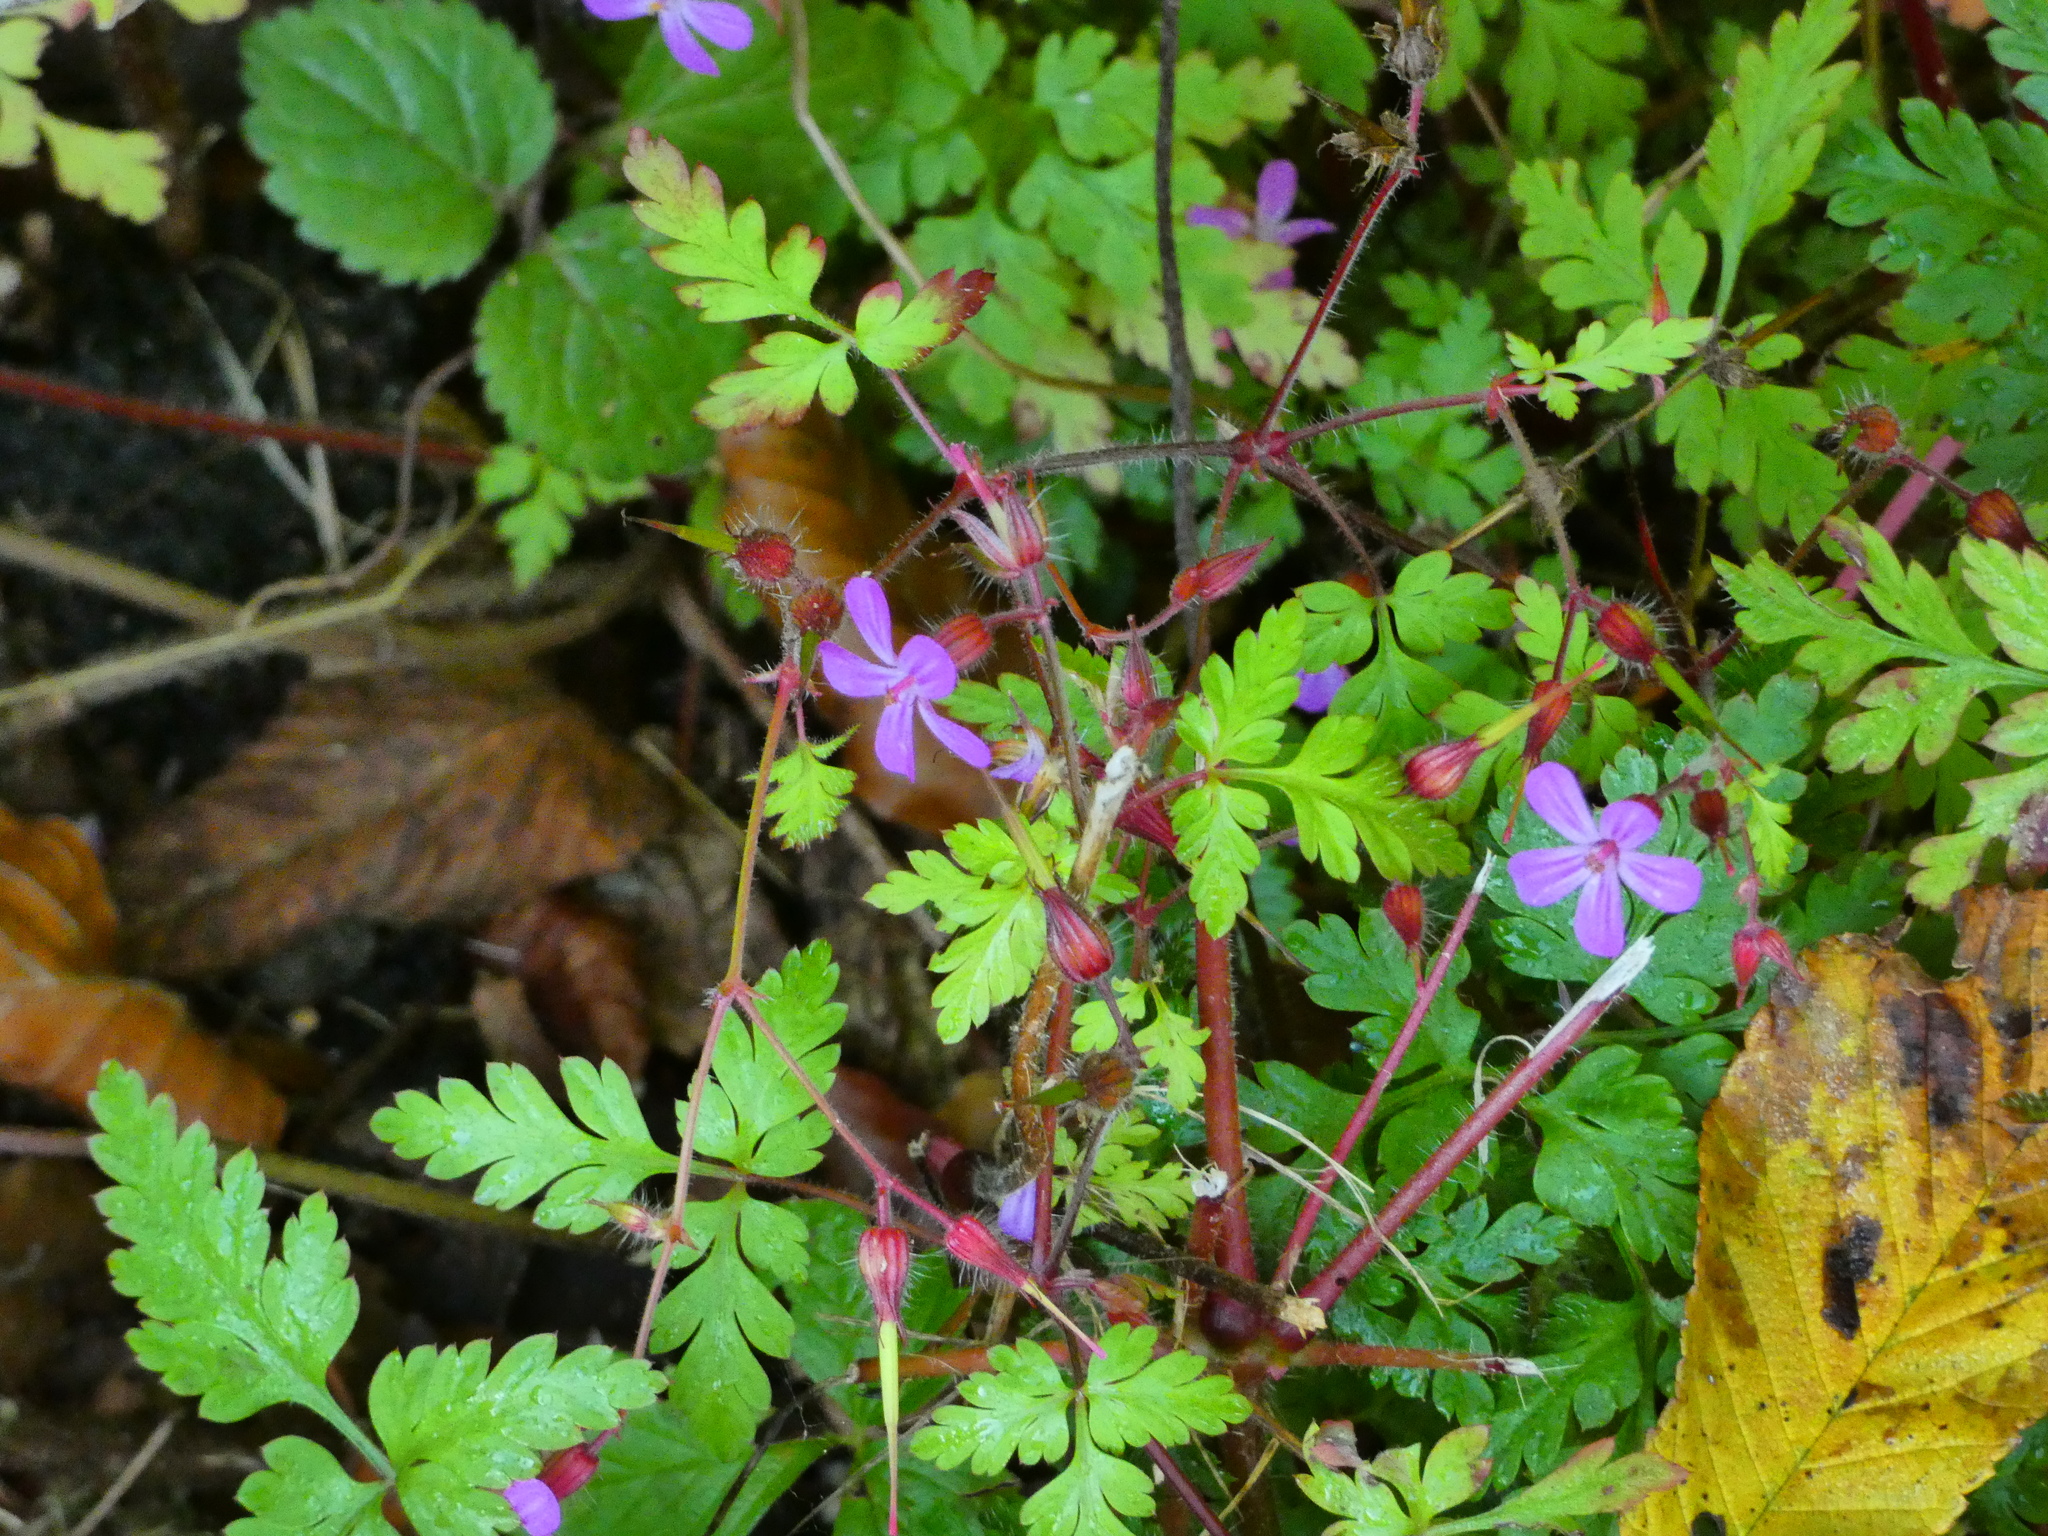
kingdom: Plantae
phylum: Tracheophyta
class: Magnoliopsida
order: Geraniales
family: Geraniaceae
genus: Geranium
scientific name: Geranium robertianum
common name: Herb-robert
